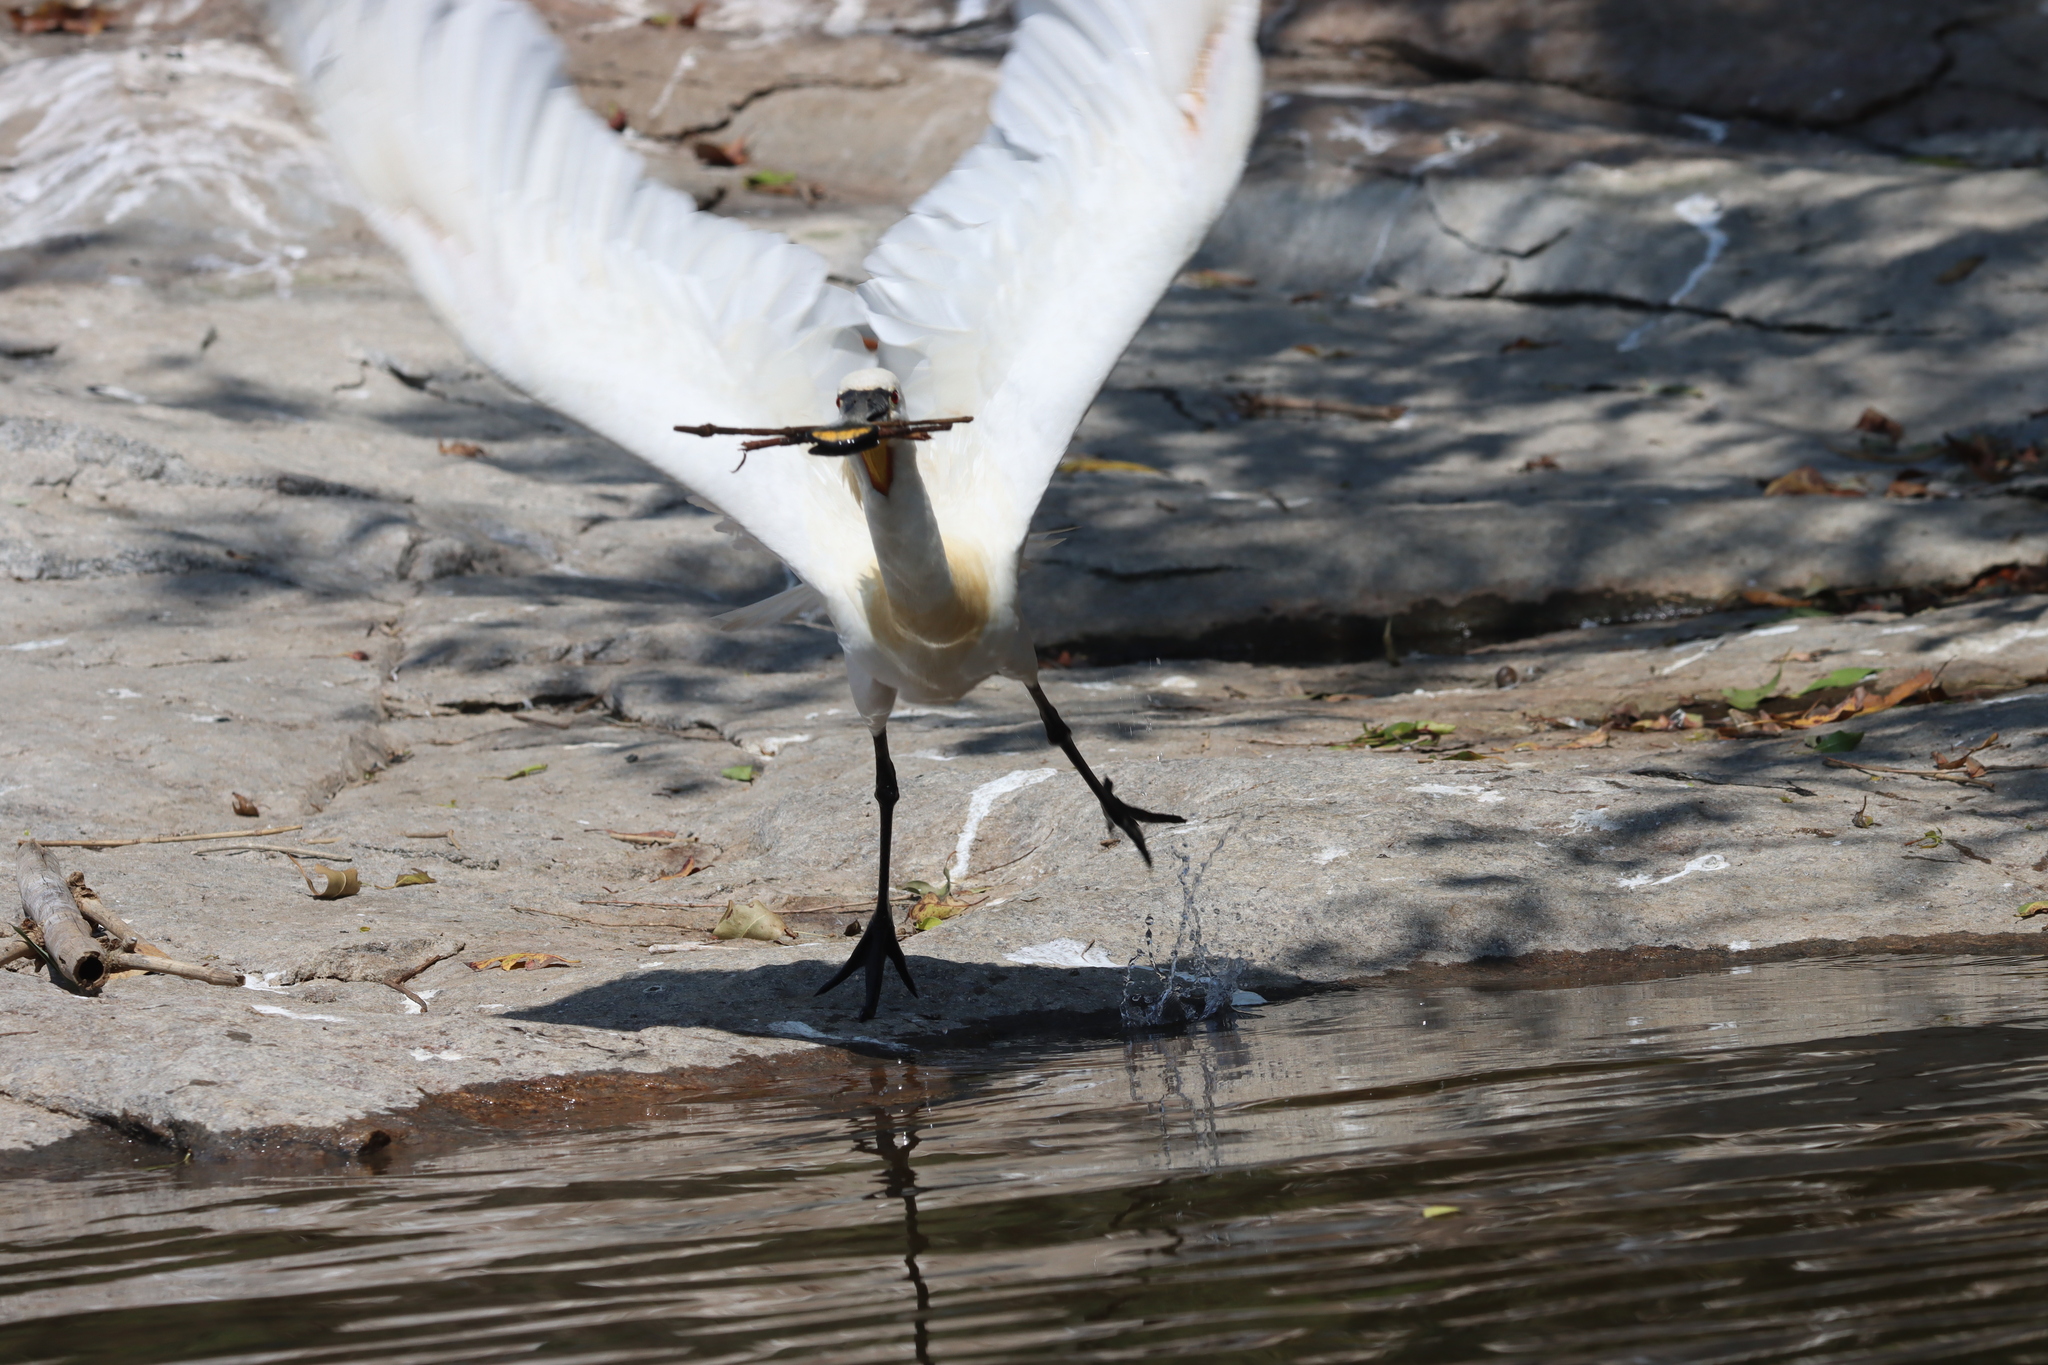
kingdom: Animalia
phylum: Chordata
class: Aves
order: Pelecaniformes
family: Threskiornithidae
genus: Platalea
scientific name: Platalea leucorodia
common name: Eurasian spoonbill
